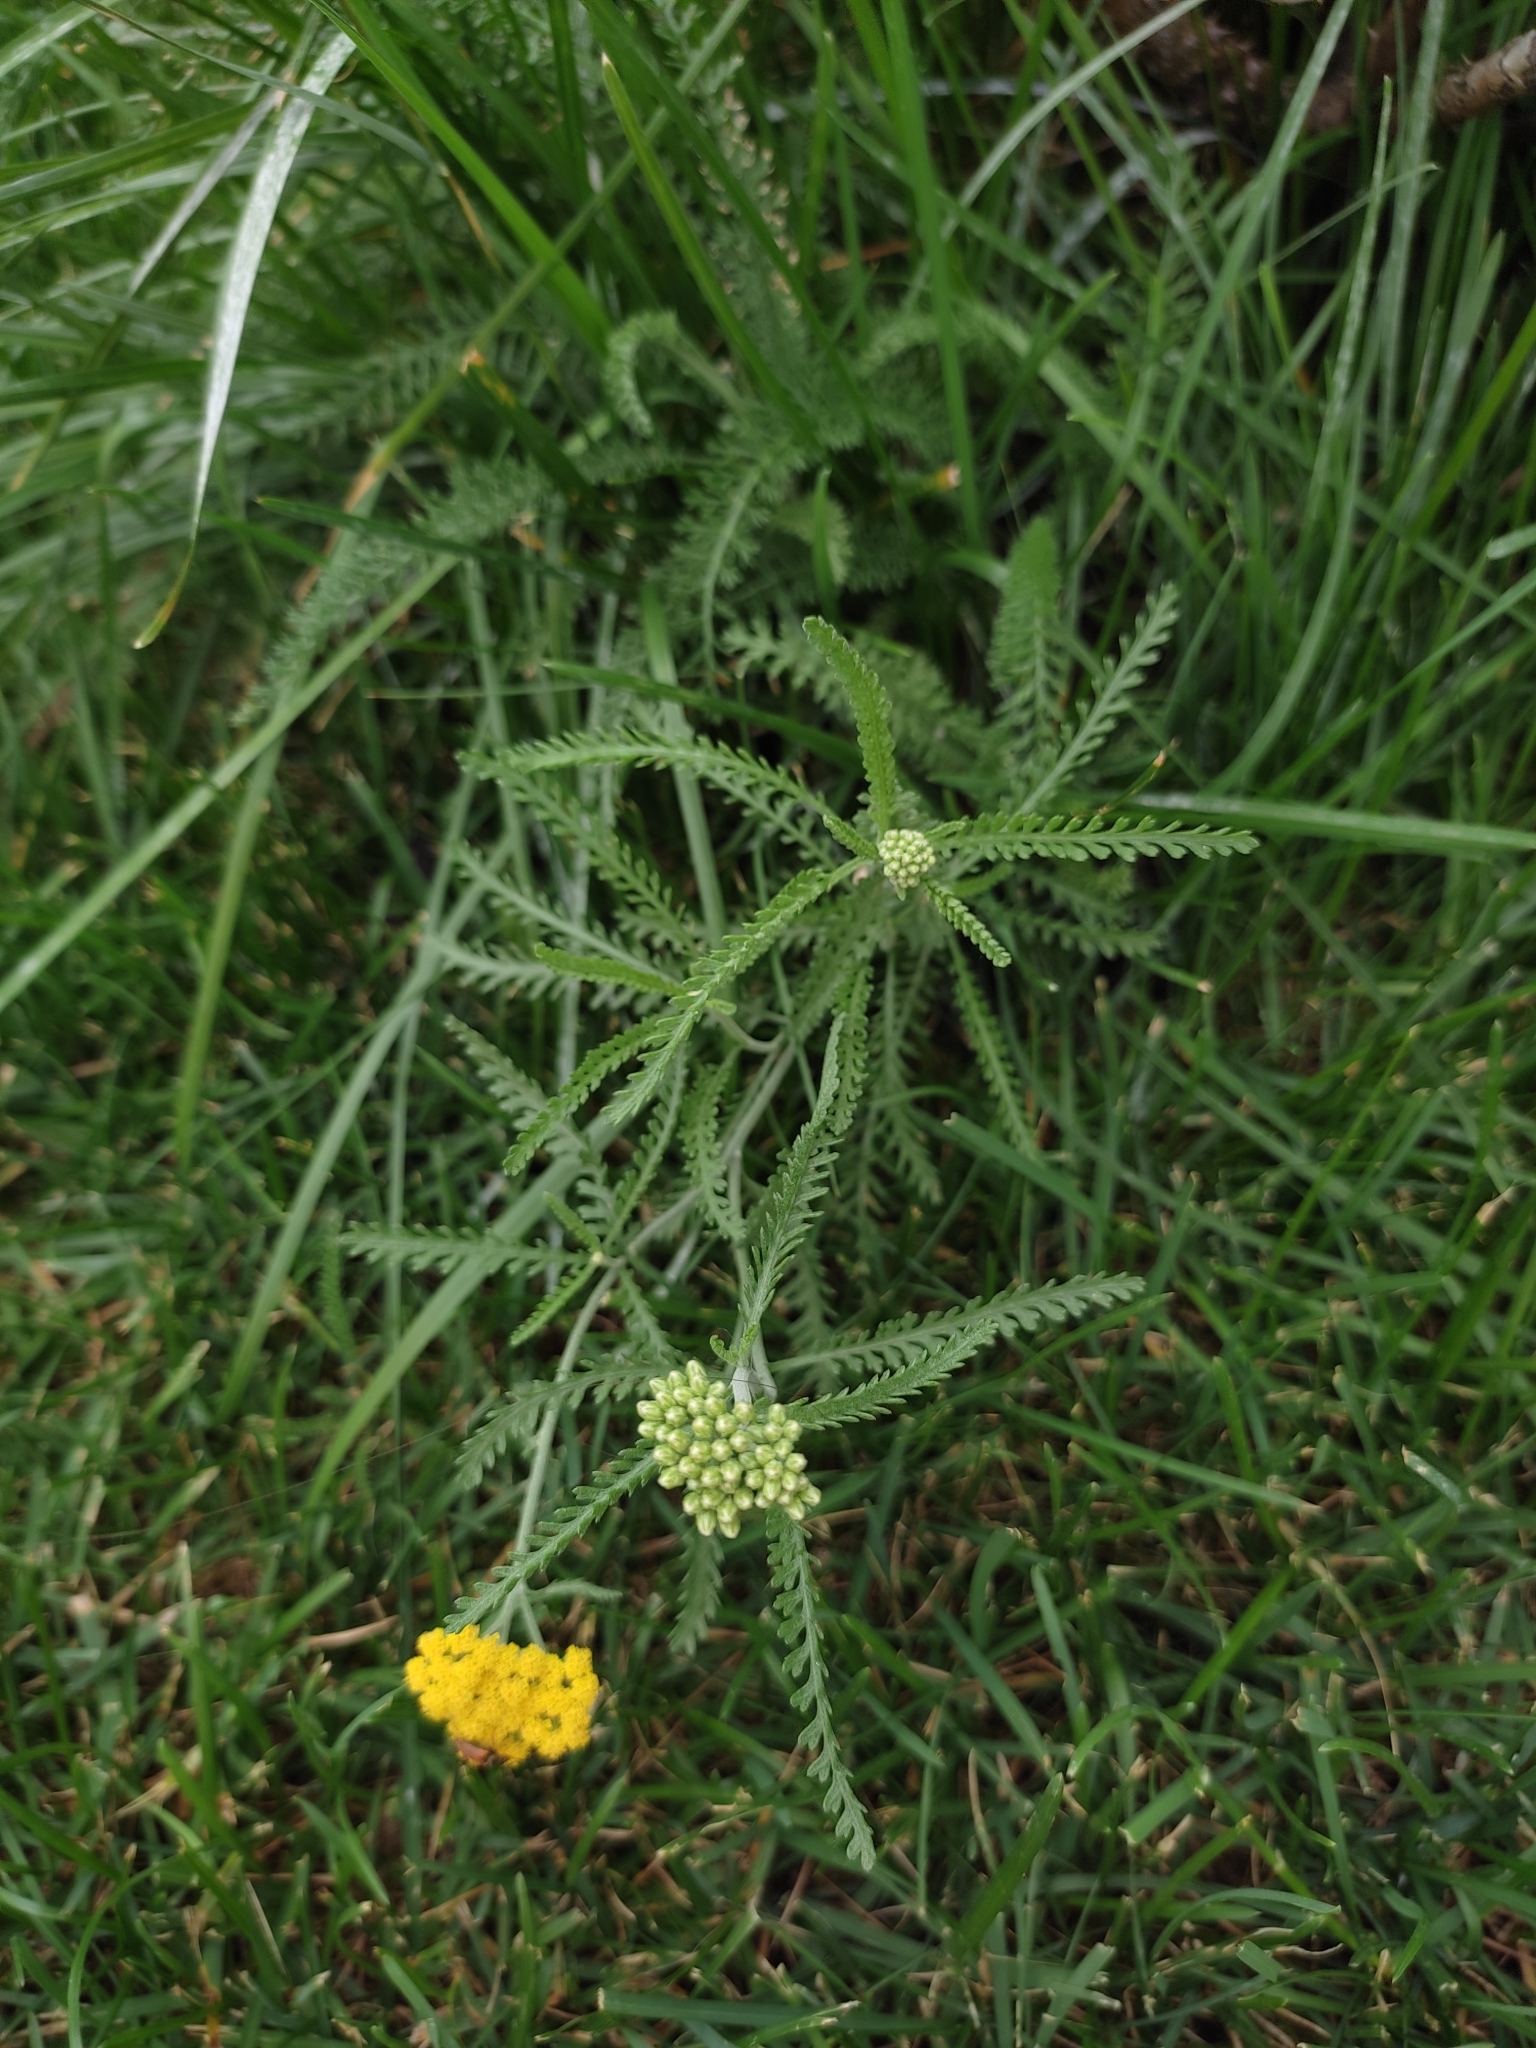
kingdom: Plantae
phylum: Tracheophyta
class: Magnoliopsida
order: Asterales
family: Asteraceae
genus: Achillea
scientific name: Achillea micrantha
